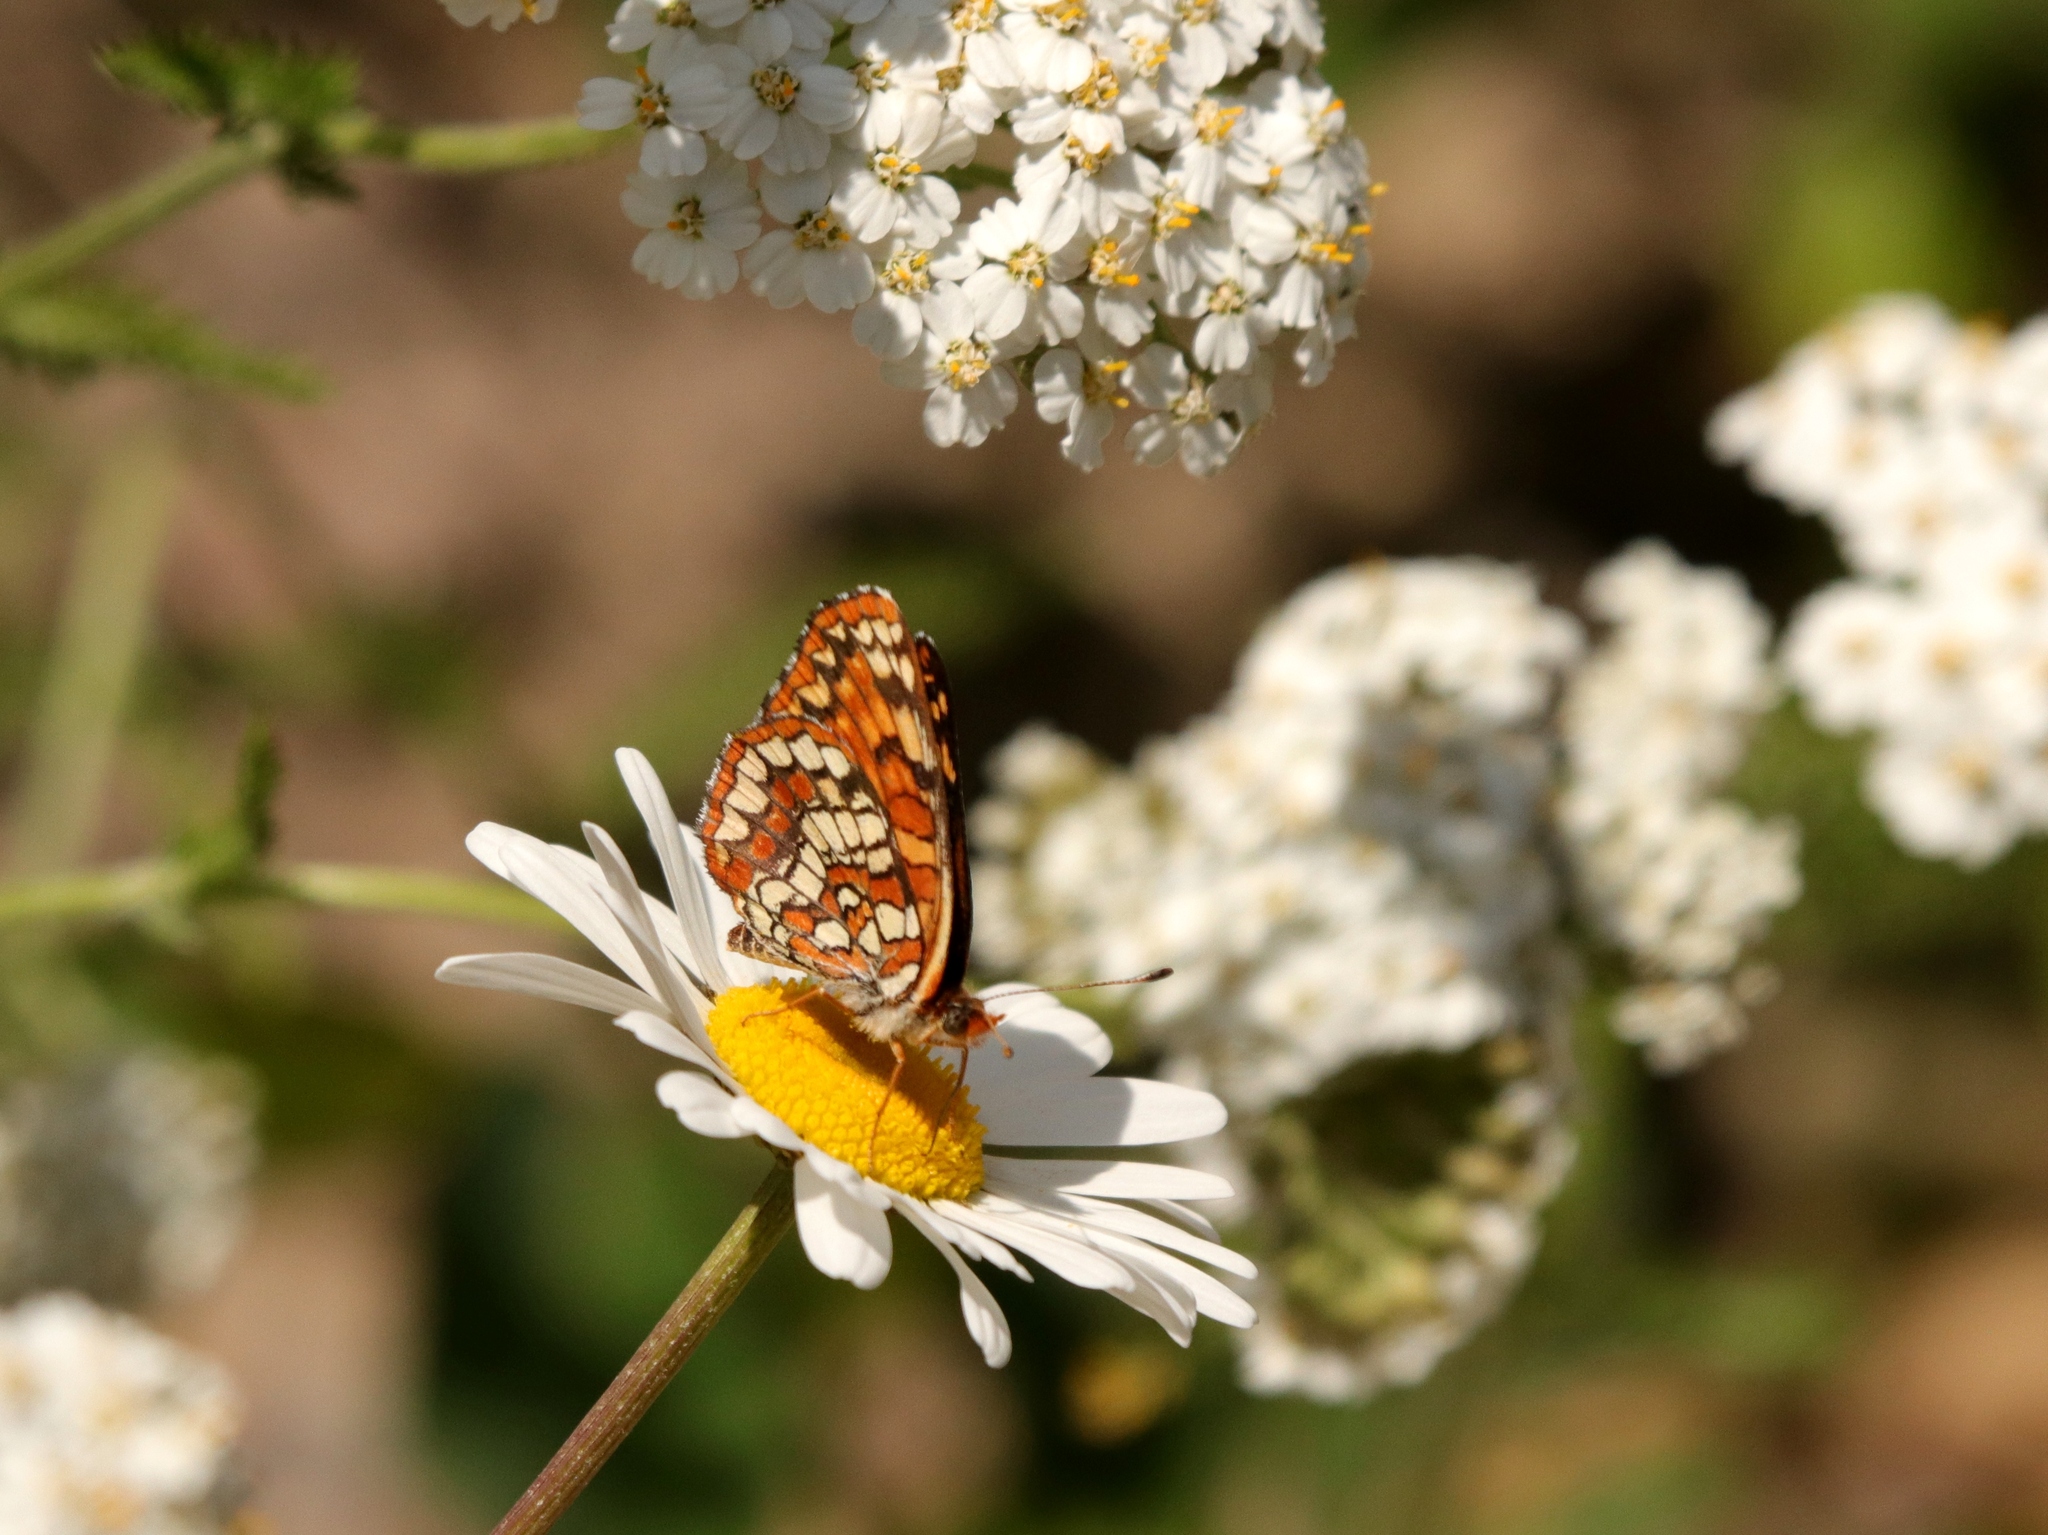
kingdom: Animalia
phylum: Arthropoda
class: Insecta
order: Lepidoptera
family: Nymphalidae
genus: Chlosyne
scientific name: Chlosyne palla
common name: Northern checkerspot
